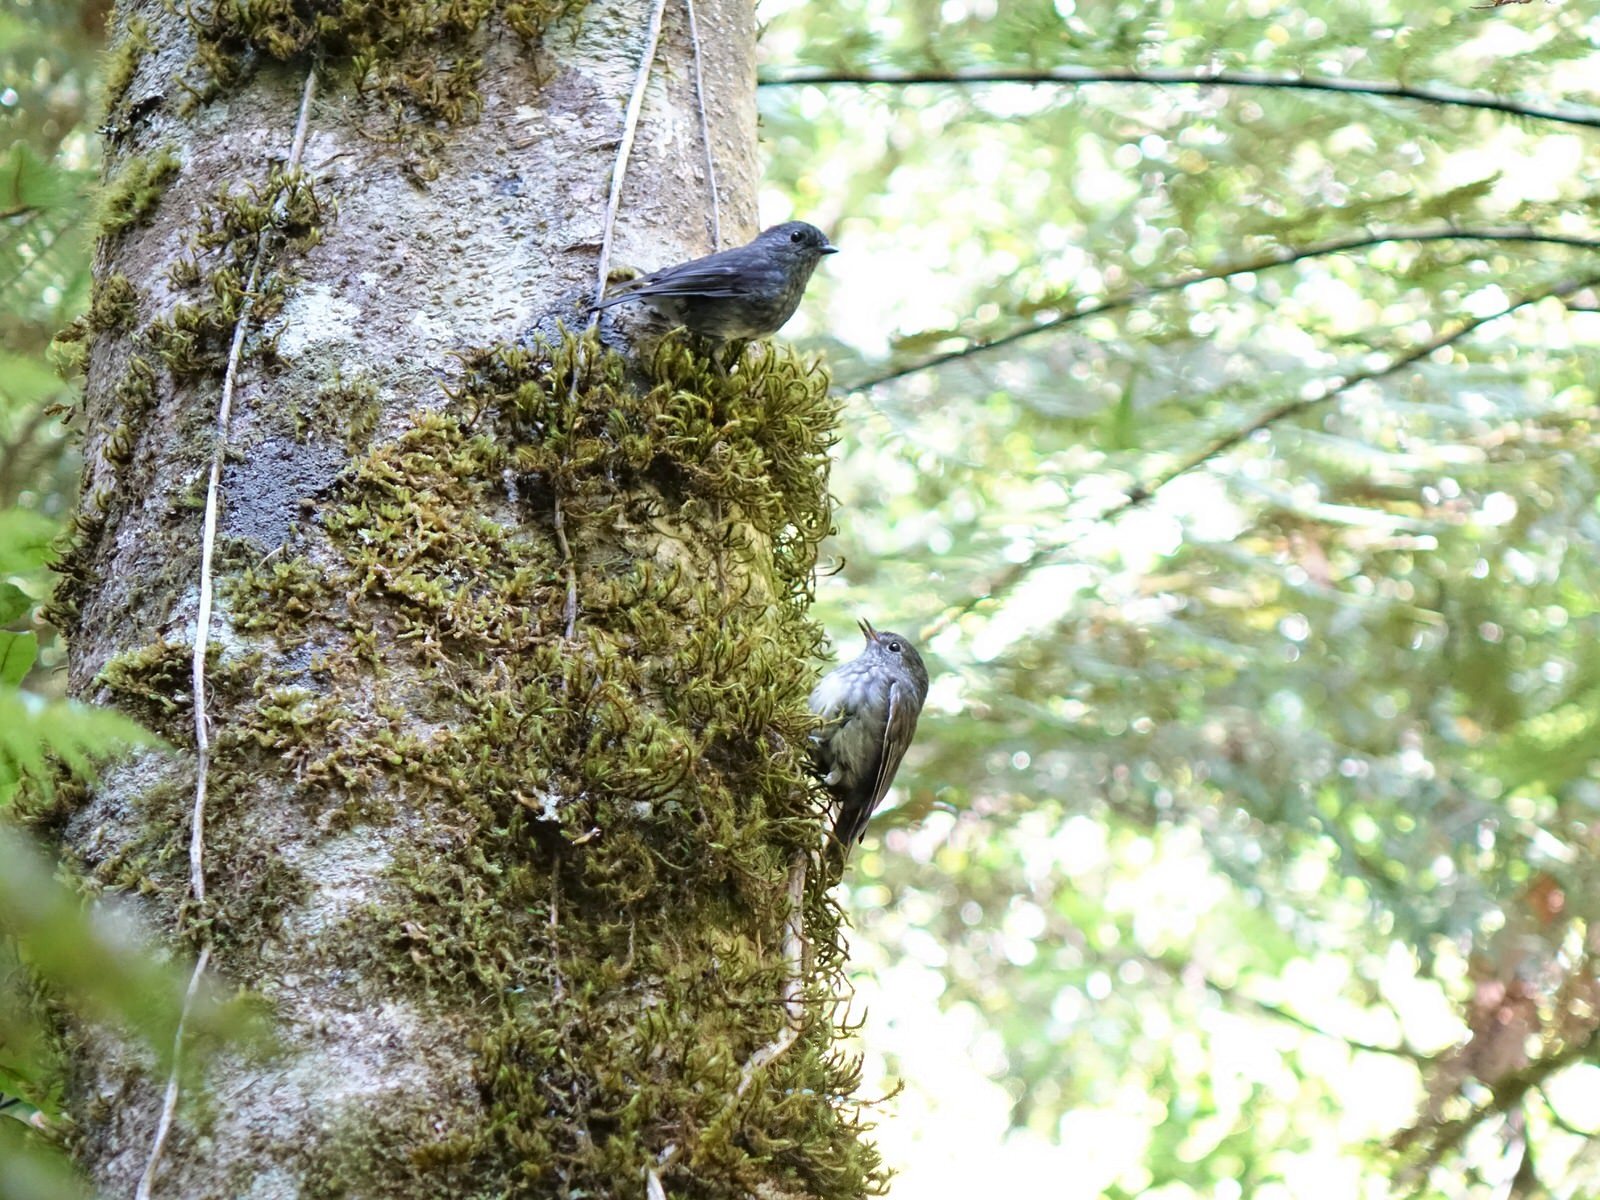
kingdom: Animalia
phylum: Chordata
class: Aves
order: Passeriformes
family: Petroicidae
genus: Petroica
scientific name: Petroica australis
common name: New zealand robin
